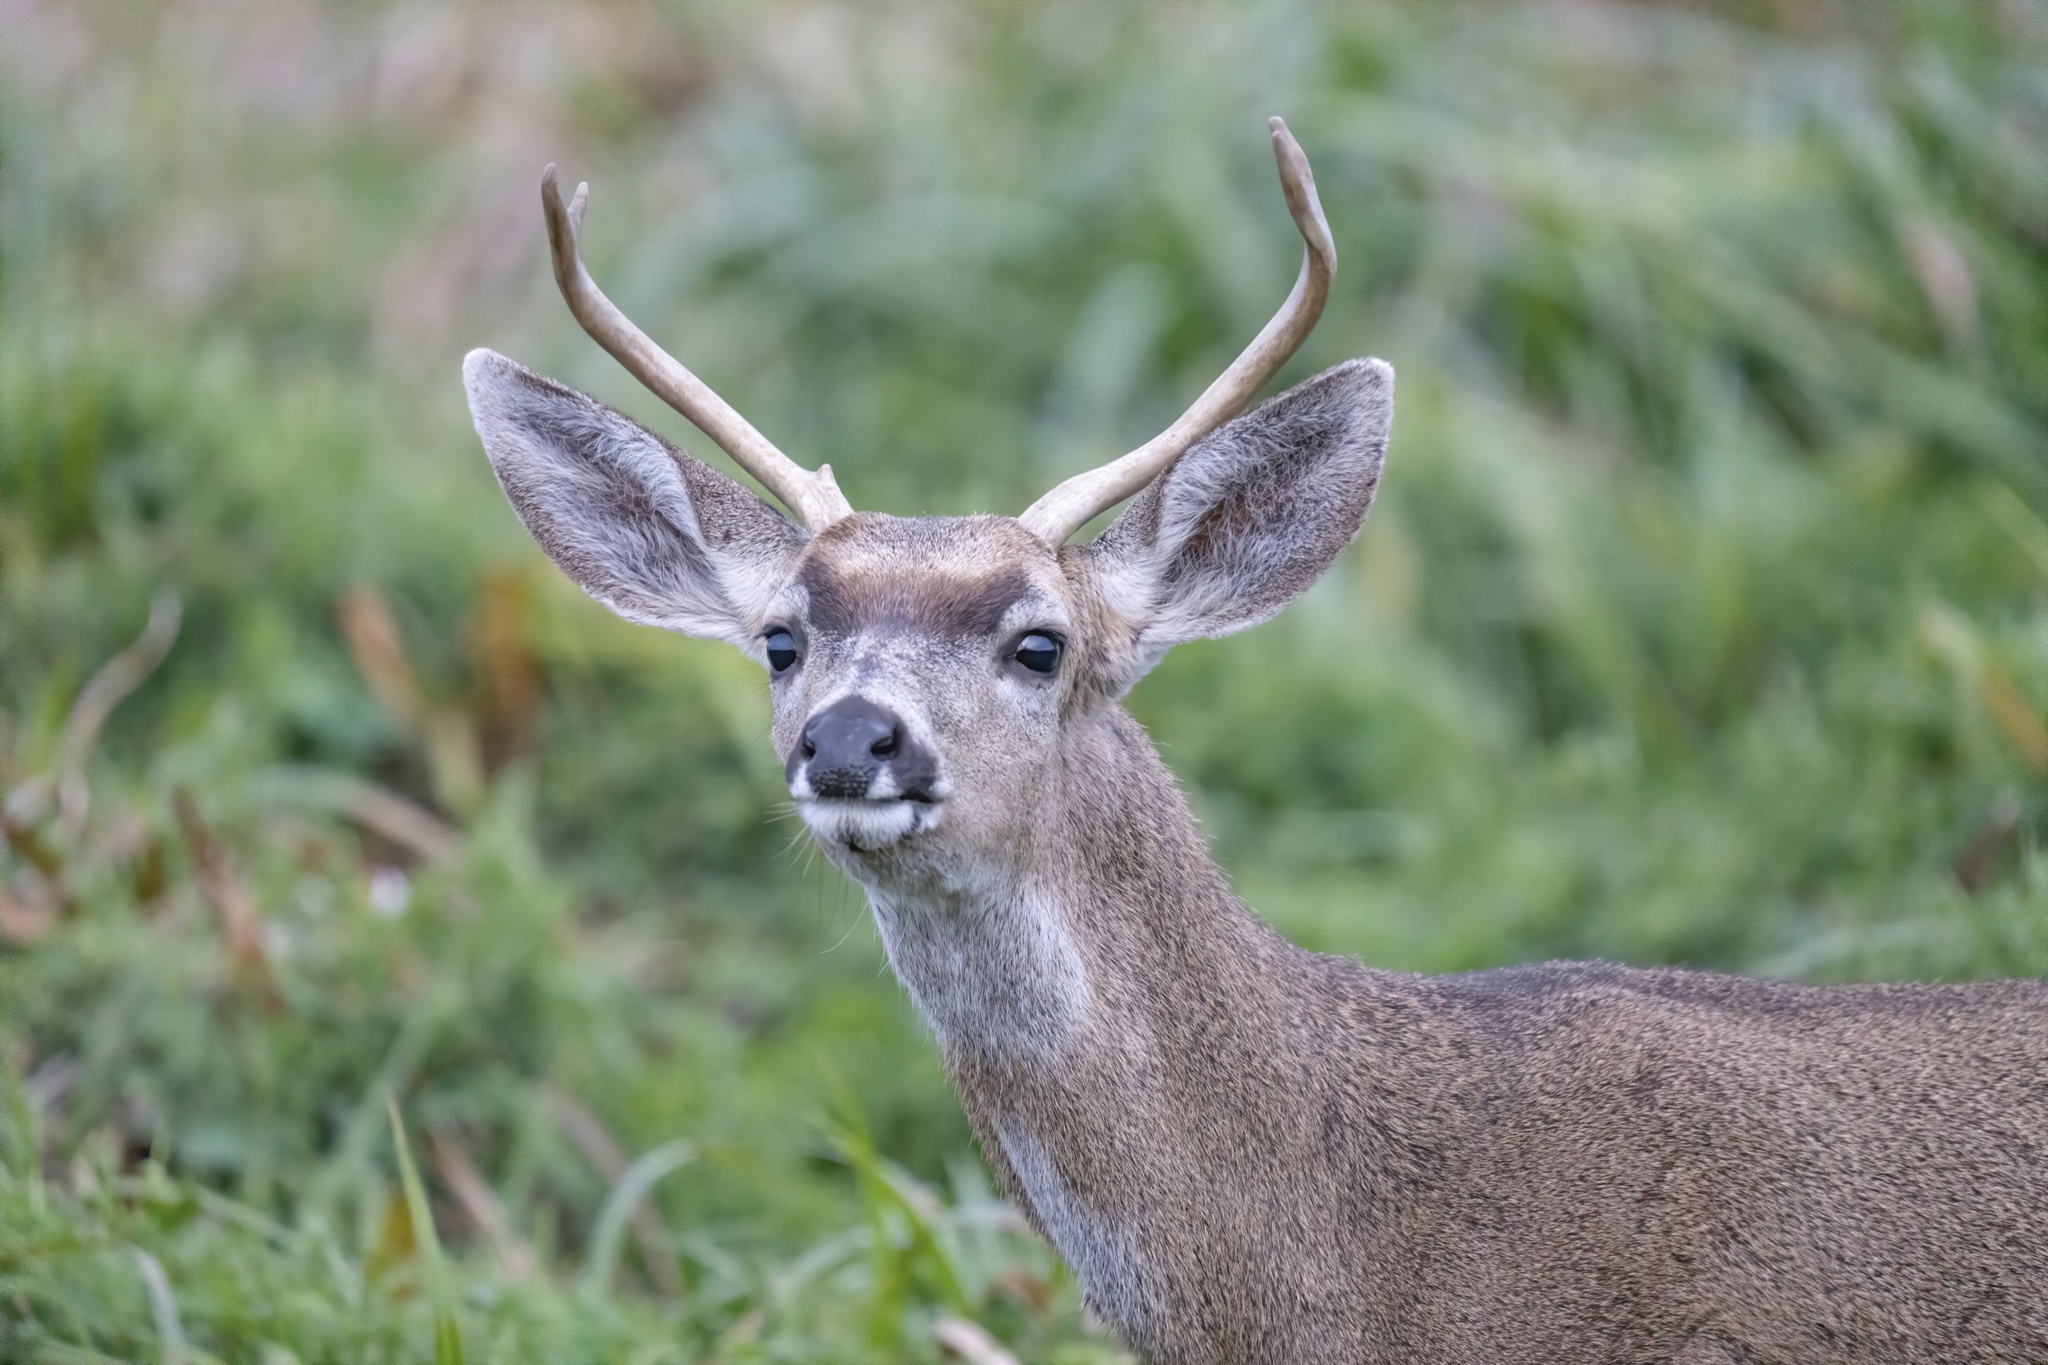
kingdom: Animalia
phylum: Chordata
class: Mammalia
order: Artiodactyla
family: Cervidae
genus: Odocoileus
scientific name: Odocoileus hemionus
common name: Mule deer
